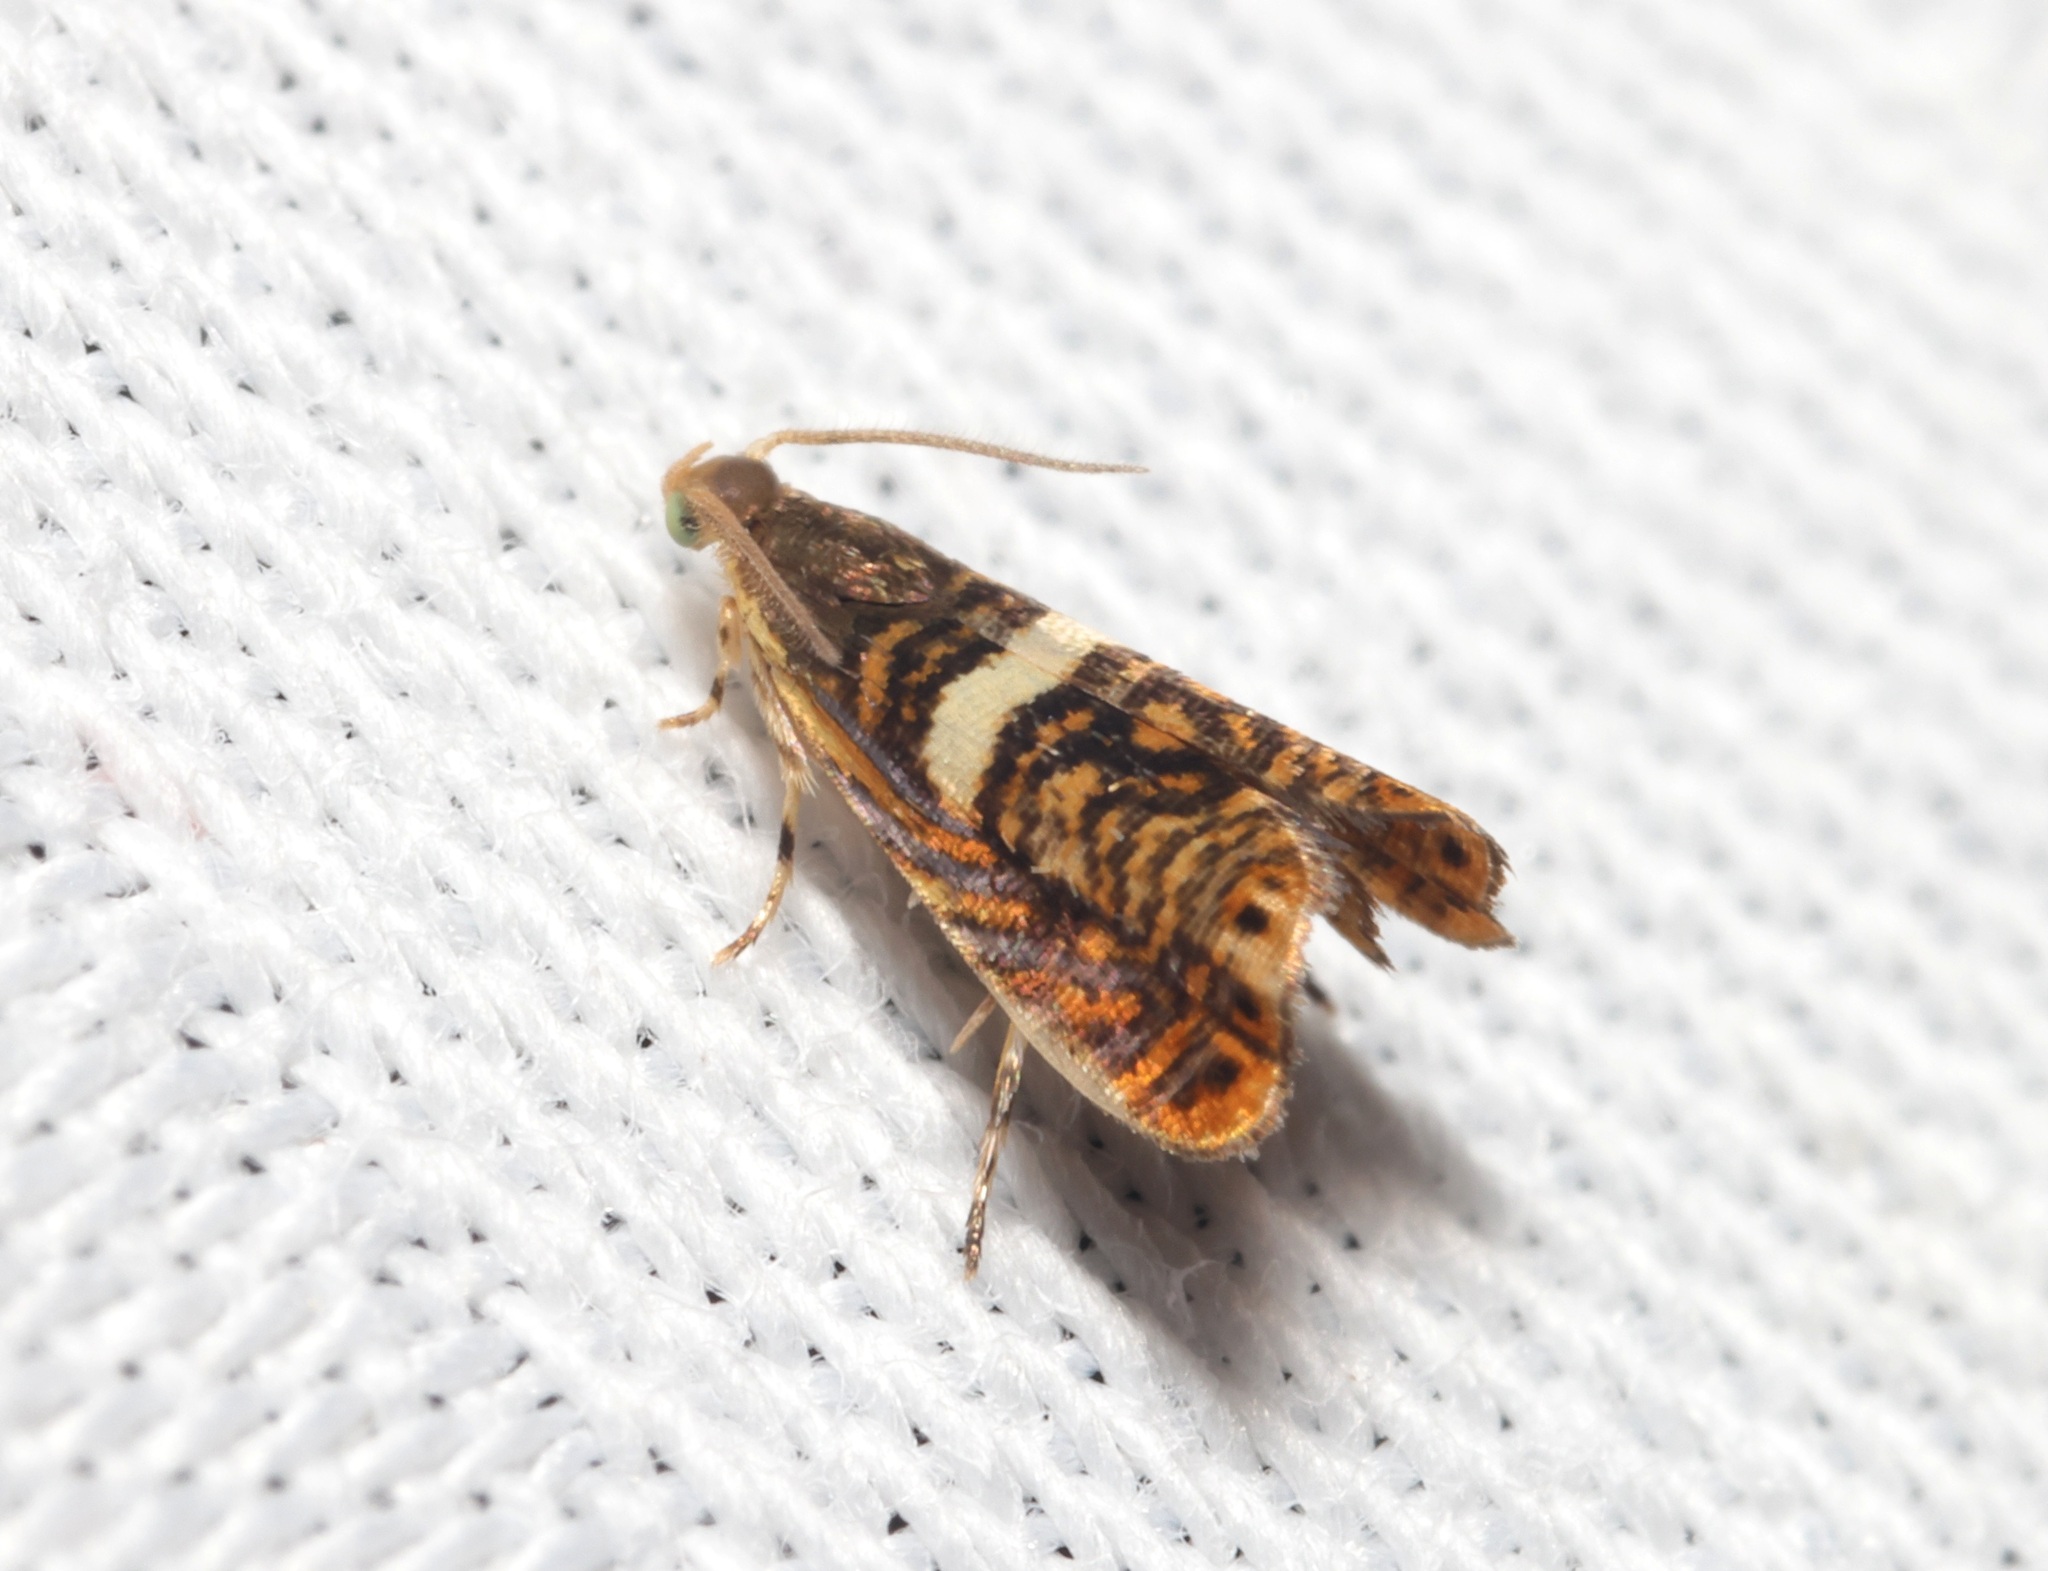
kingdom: Animalia
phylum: Arthropoda
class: Insecta
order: Lepidoptera
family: Tortricidae
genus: Hilarographa
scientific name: Hilarographa shehkonga
